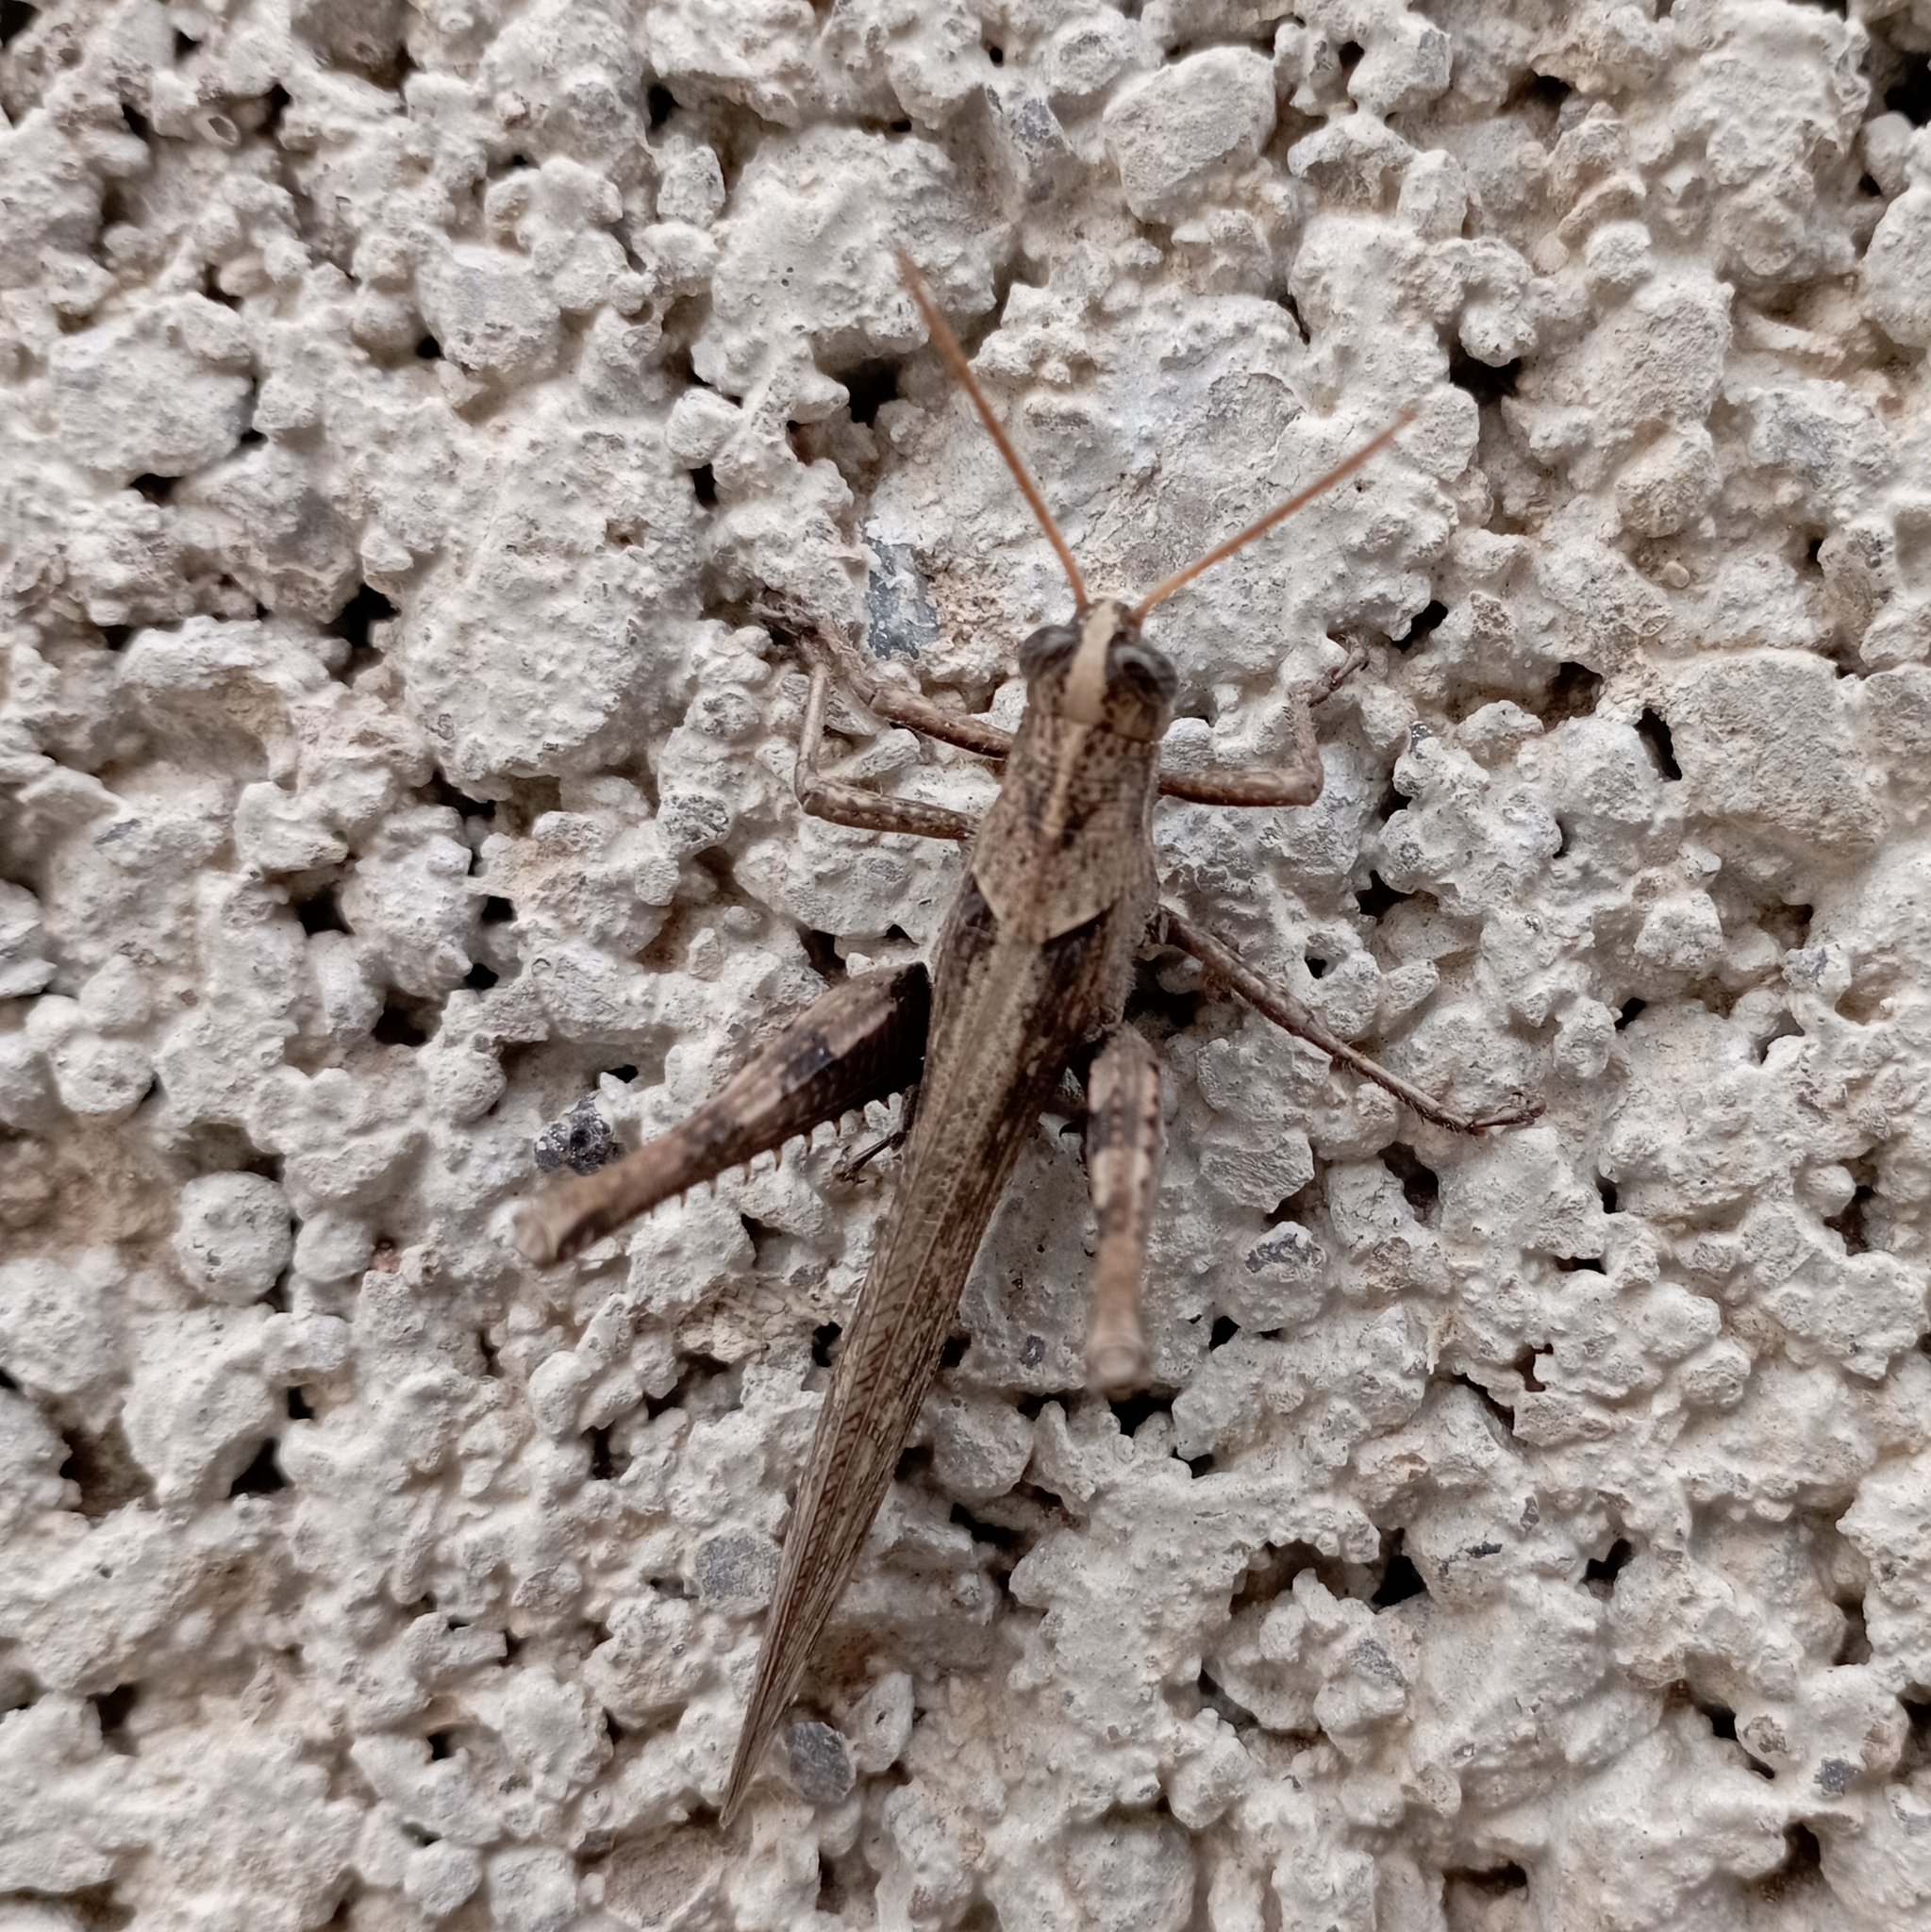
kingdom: Animalia
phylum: Arthropoda
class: Insecta
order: Orthoptera
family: Acrididae
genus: Schistocerca
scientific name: Schistocerca nitens
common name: Vagrant grasshopper
